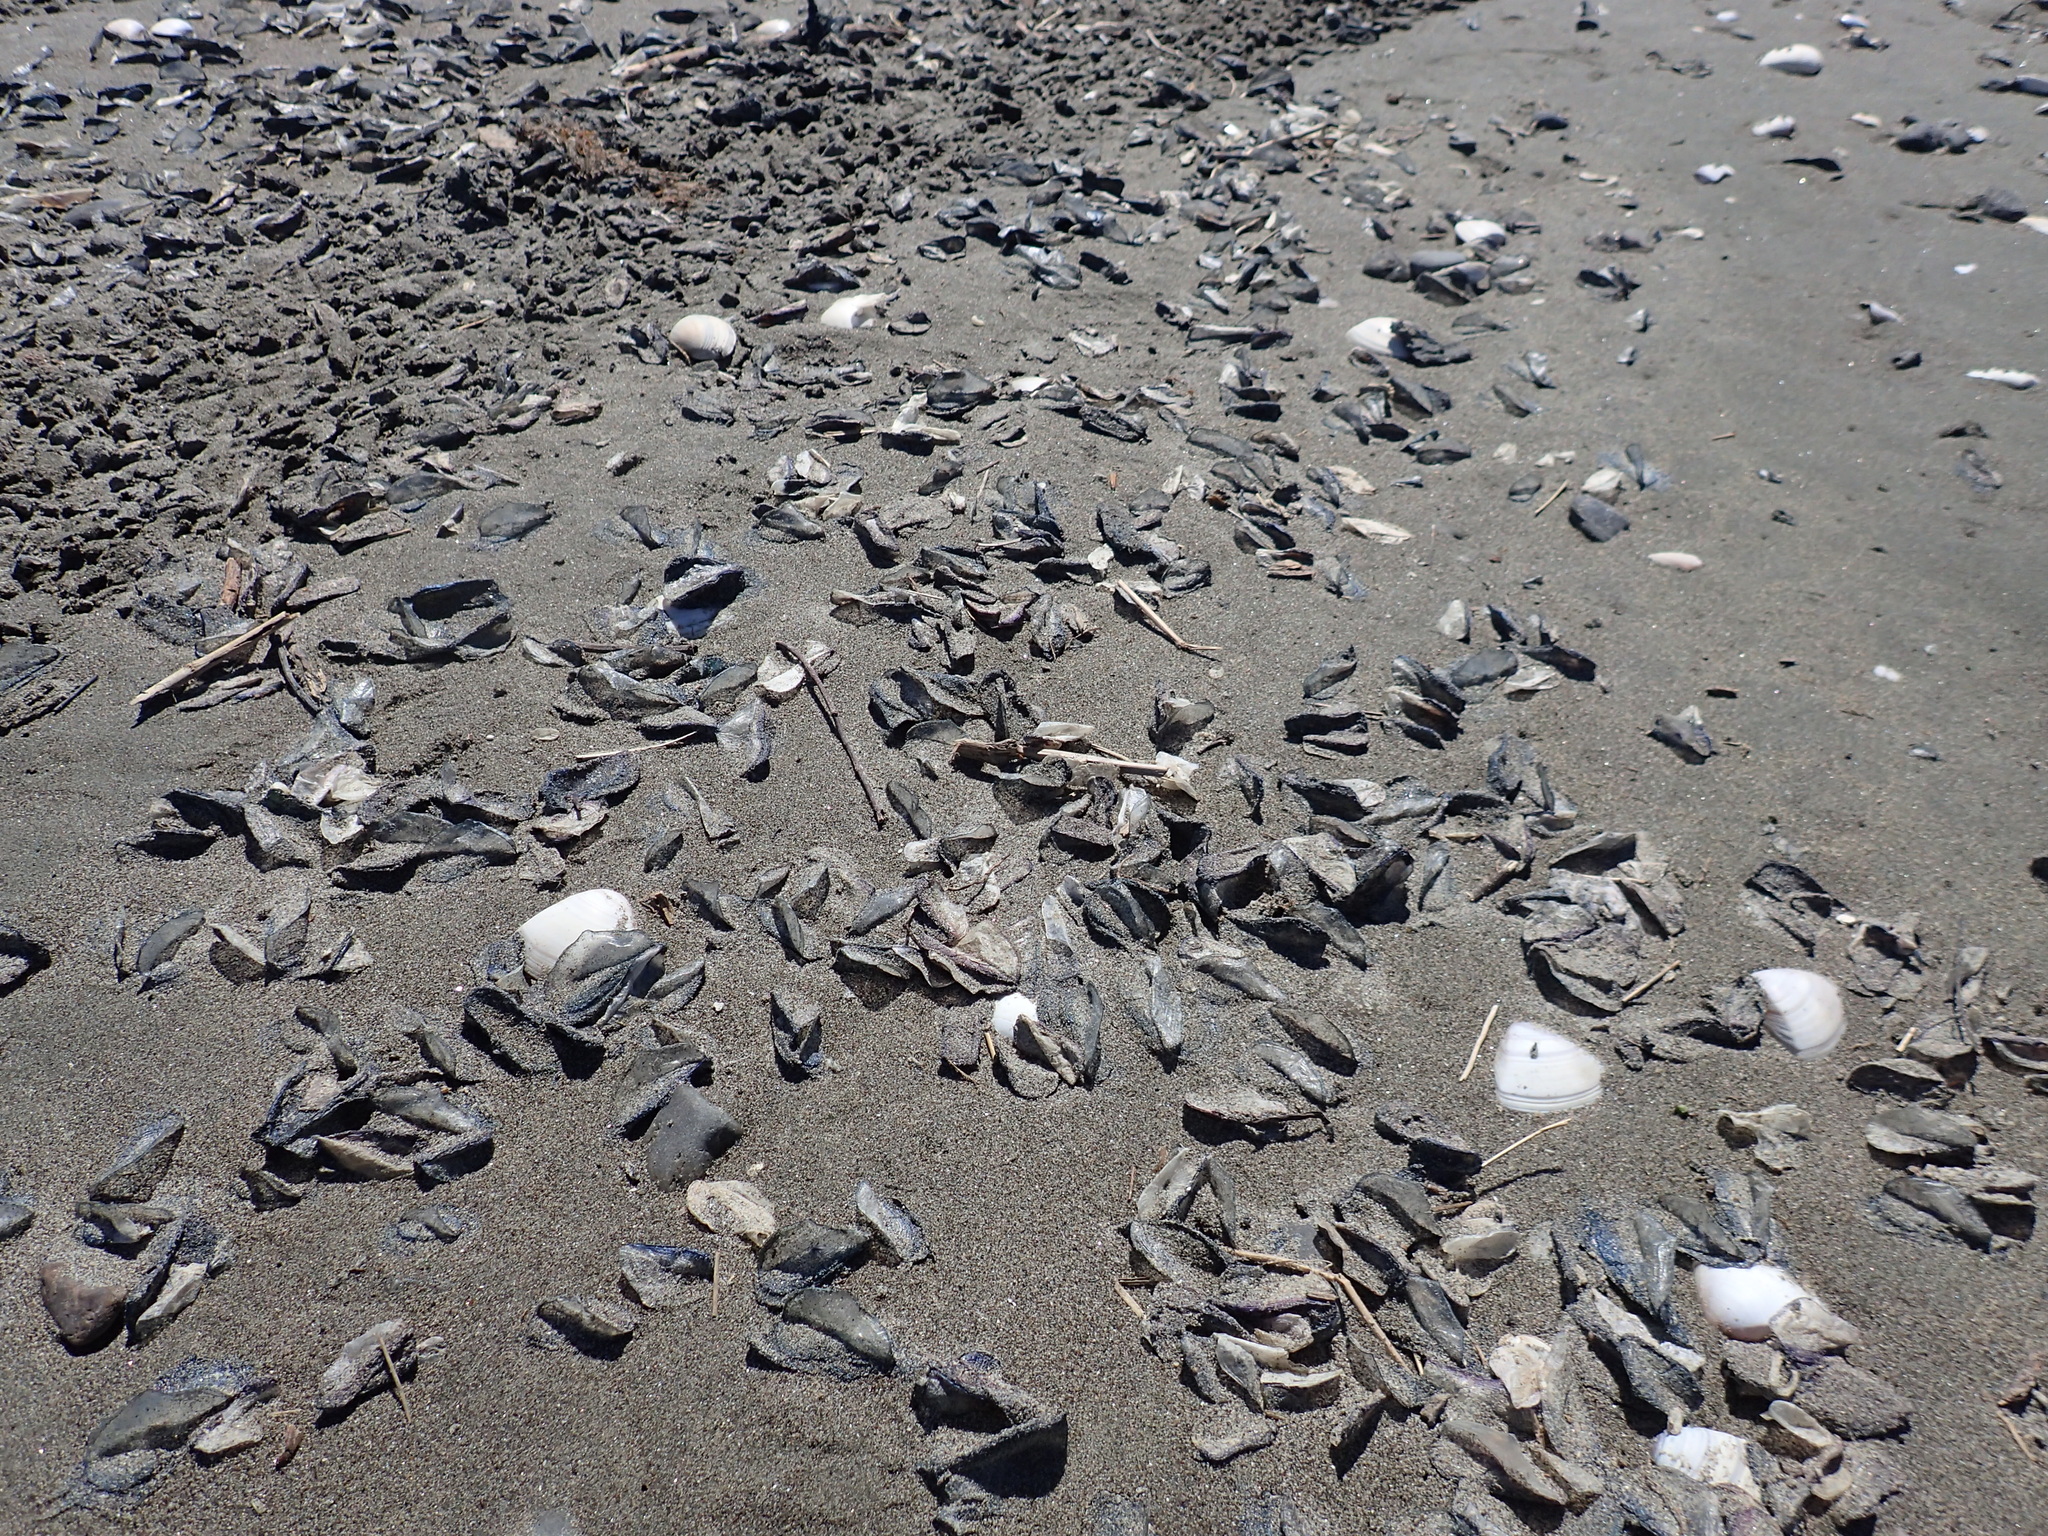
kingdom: Animalia
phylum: Cnidaria
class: Hydrozoa
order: Anthoathecata
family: Porpitidae
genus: Velella
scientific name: Velella velella
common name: By-the-wind-sailor
